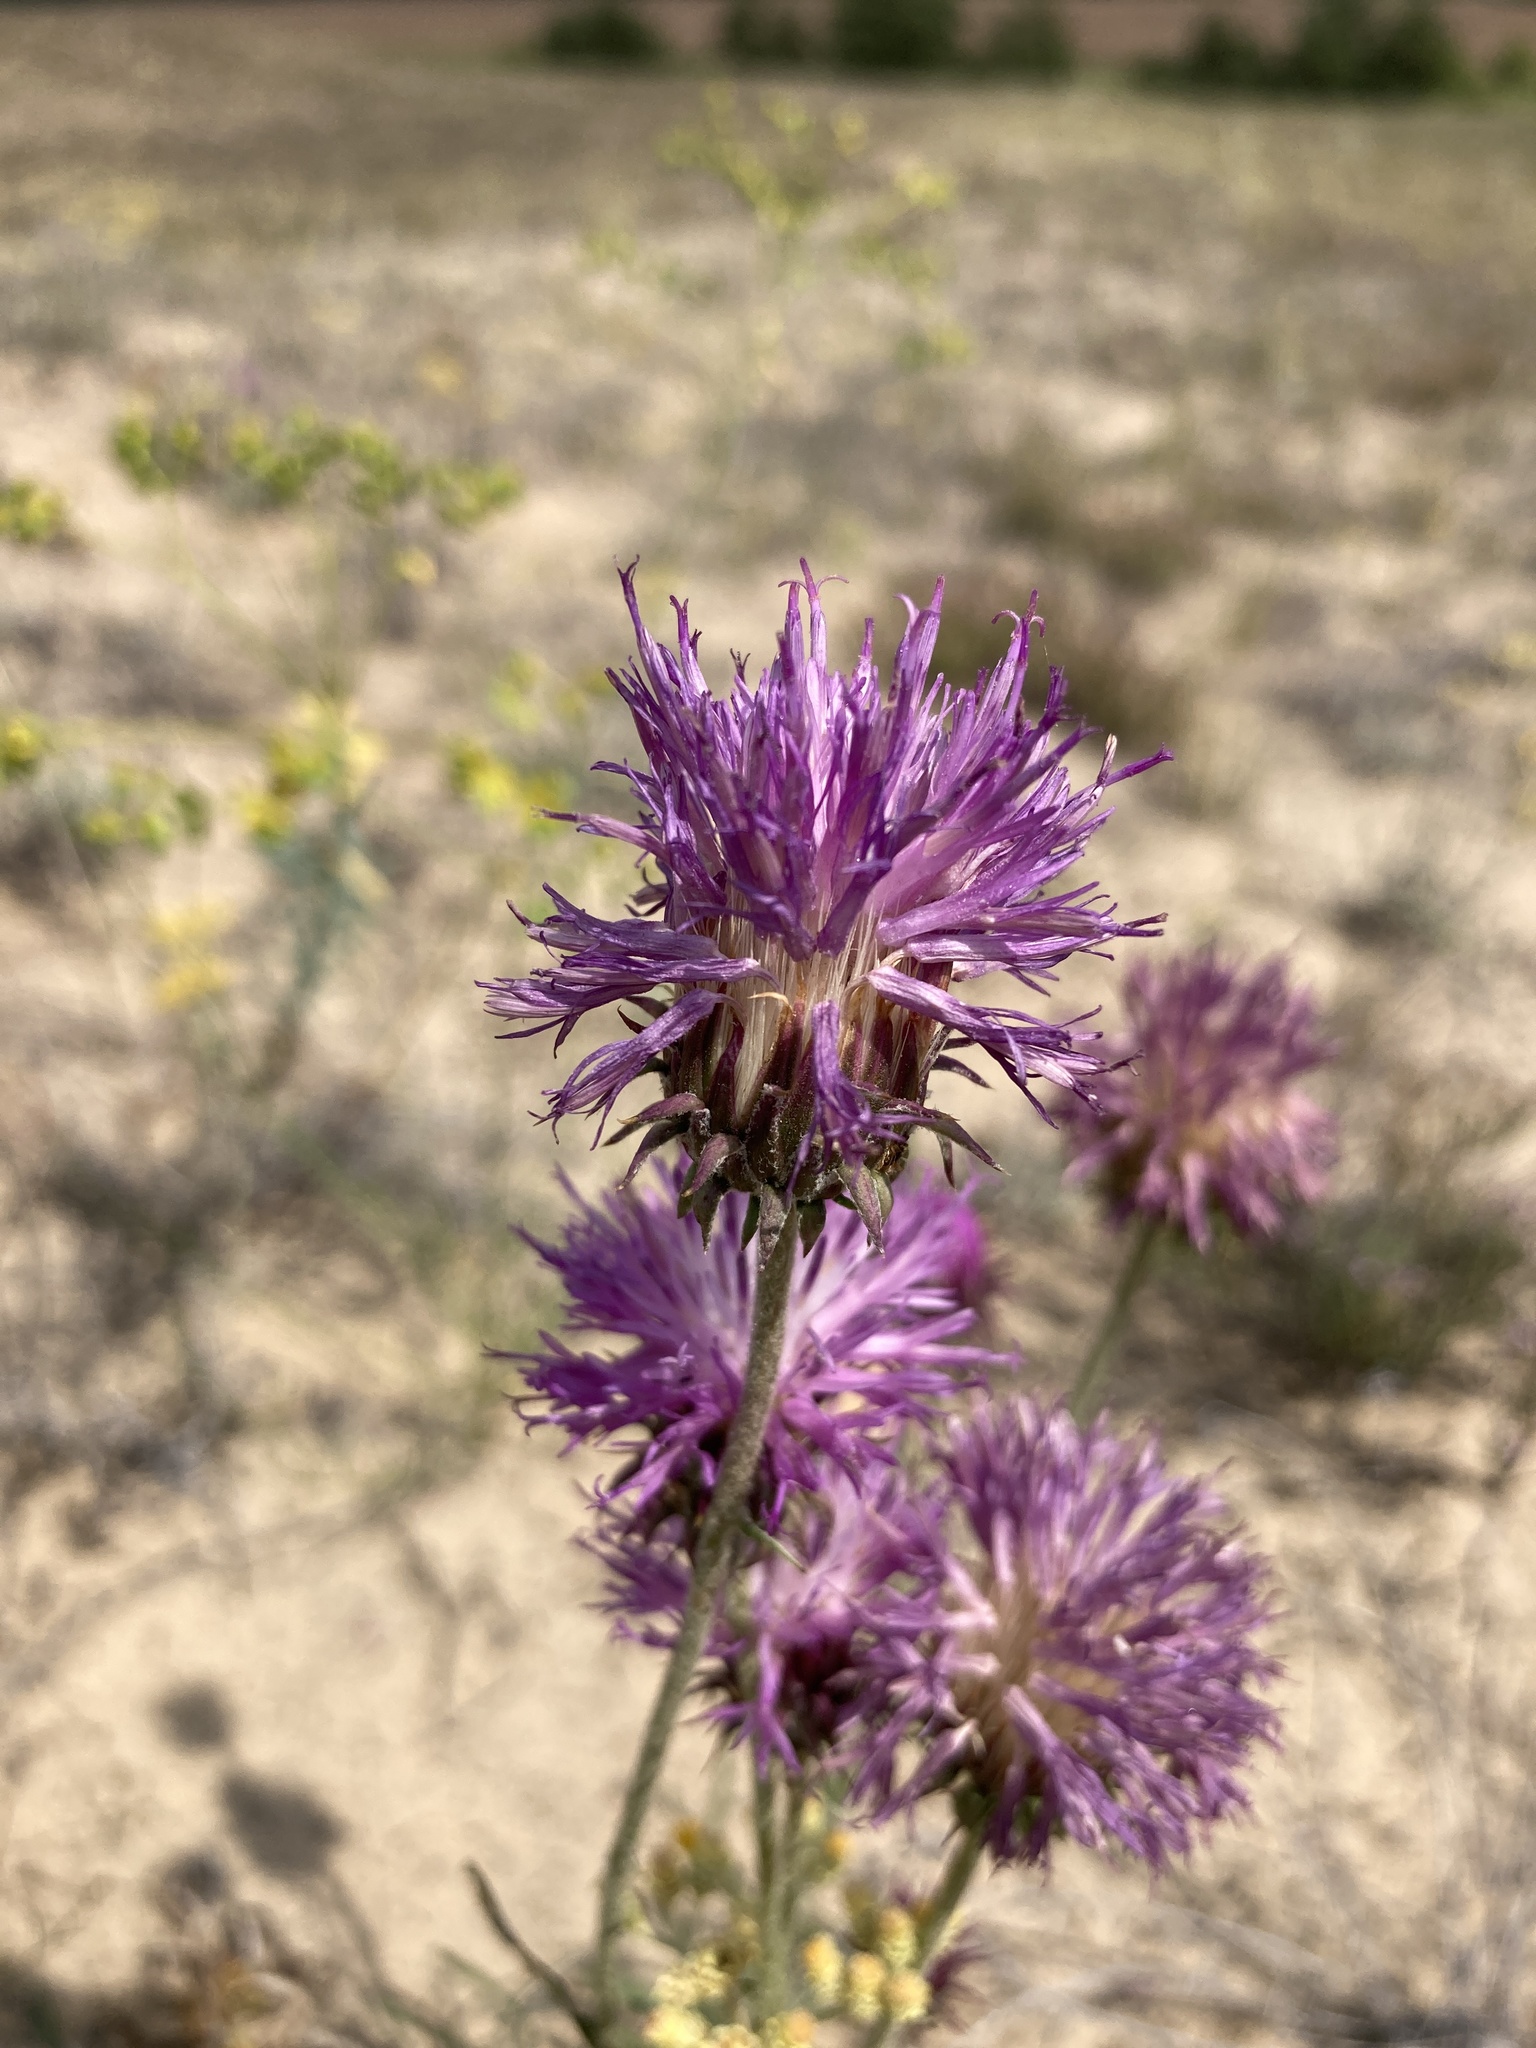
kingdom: Plantae
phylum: Tracheophyta
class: Magnoliopsida
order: Asterales
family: Asteraceae
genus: Jurinea
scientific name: Jurinea cyanoides
